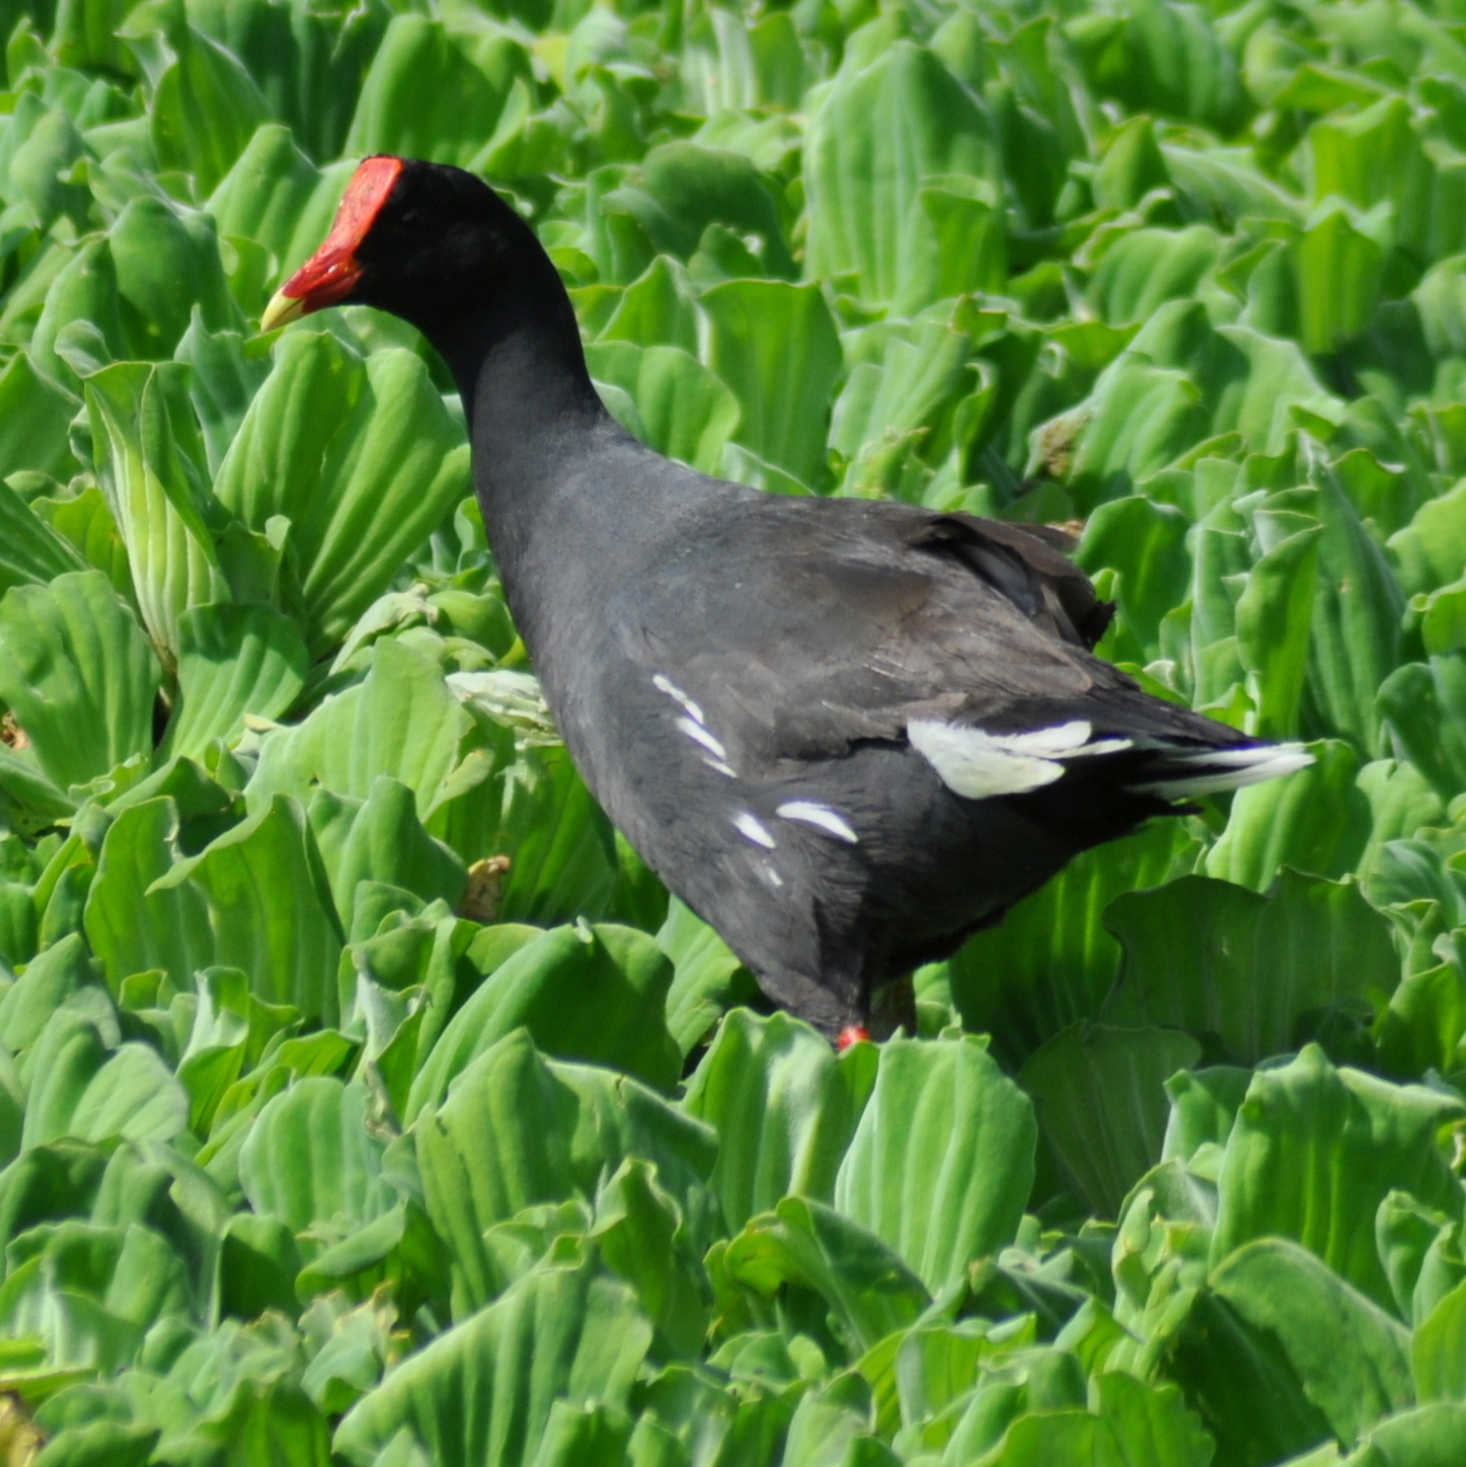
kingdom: Animalia
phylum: Chordata
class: Aves
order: Gruiformes
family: Rallidae
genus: Gallinula
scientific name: Gallinula chloropus
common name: Common moorhen
